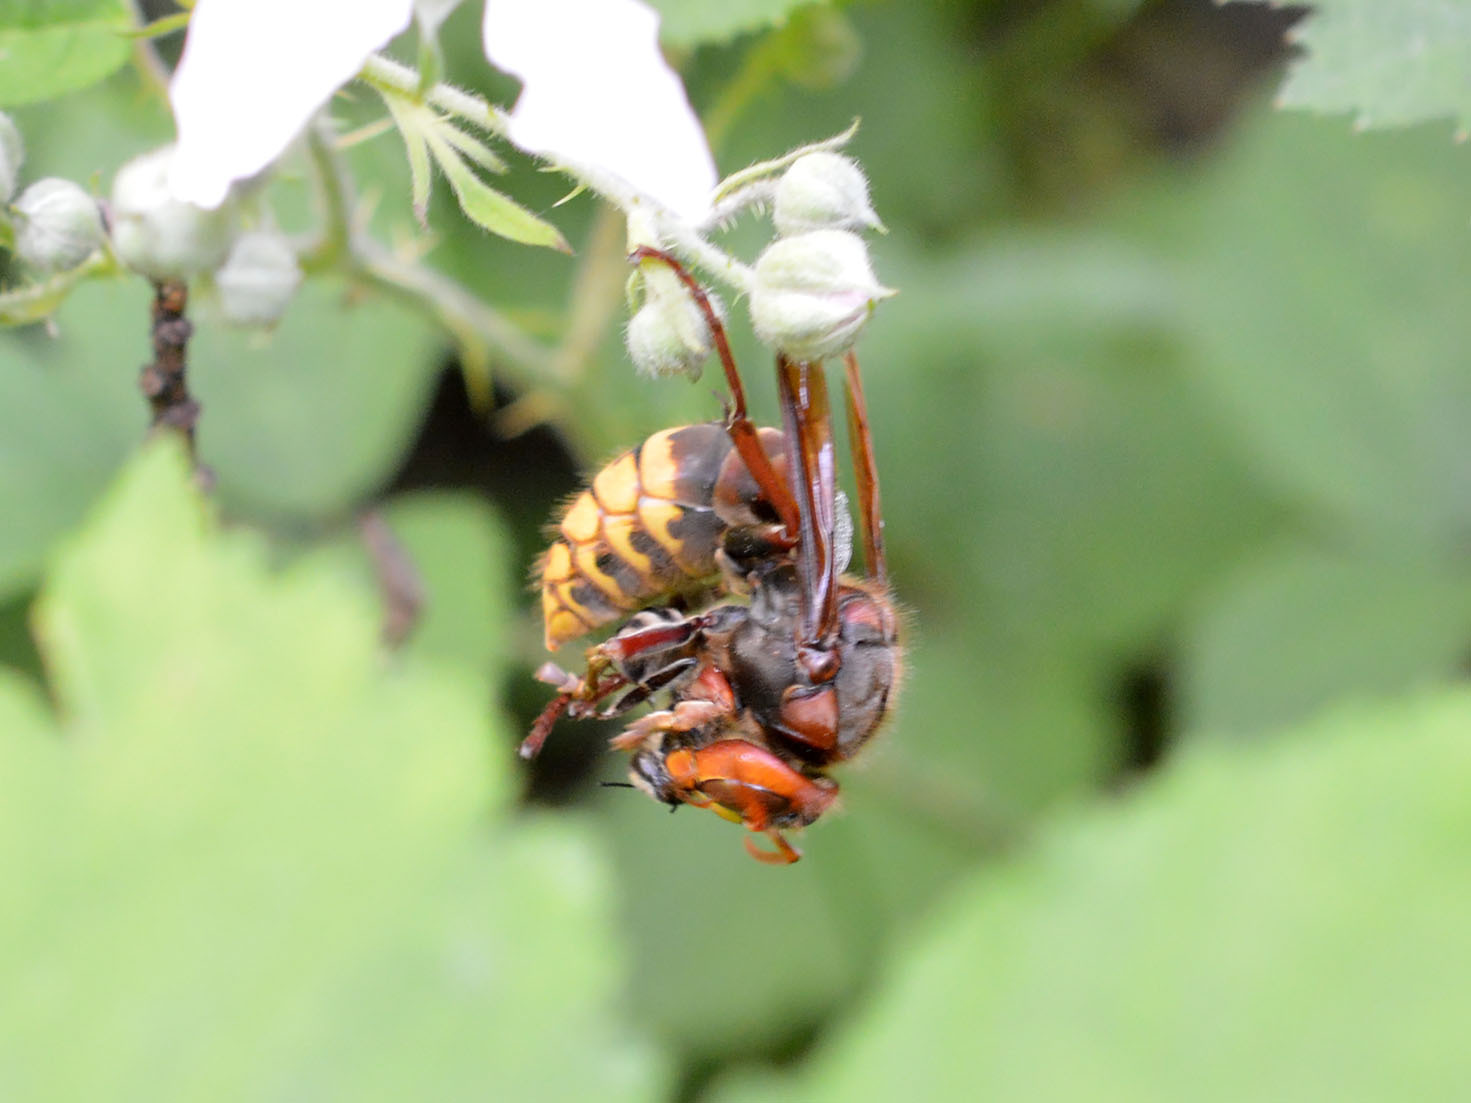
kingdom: Animalia
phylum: Arthropoda
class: Insecta
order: Hymenoptera
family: Vespidae
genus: Vespa
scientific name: Vespa crabro
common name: Hornet
